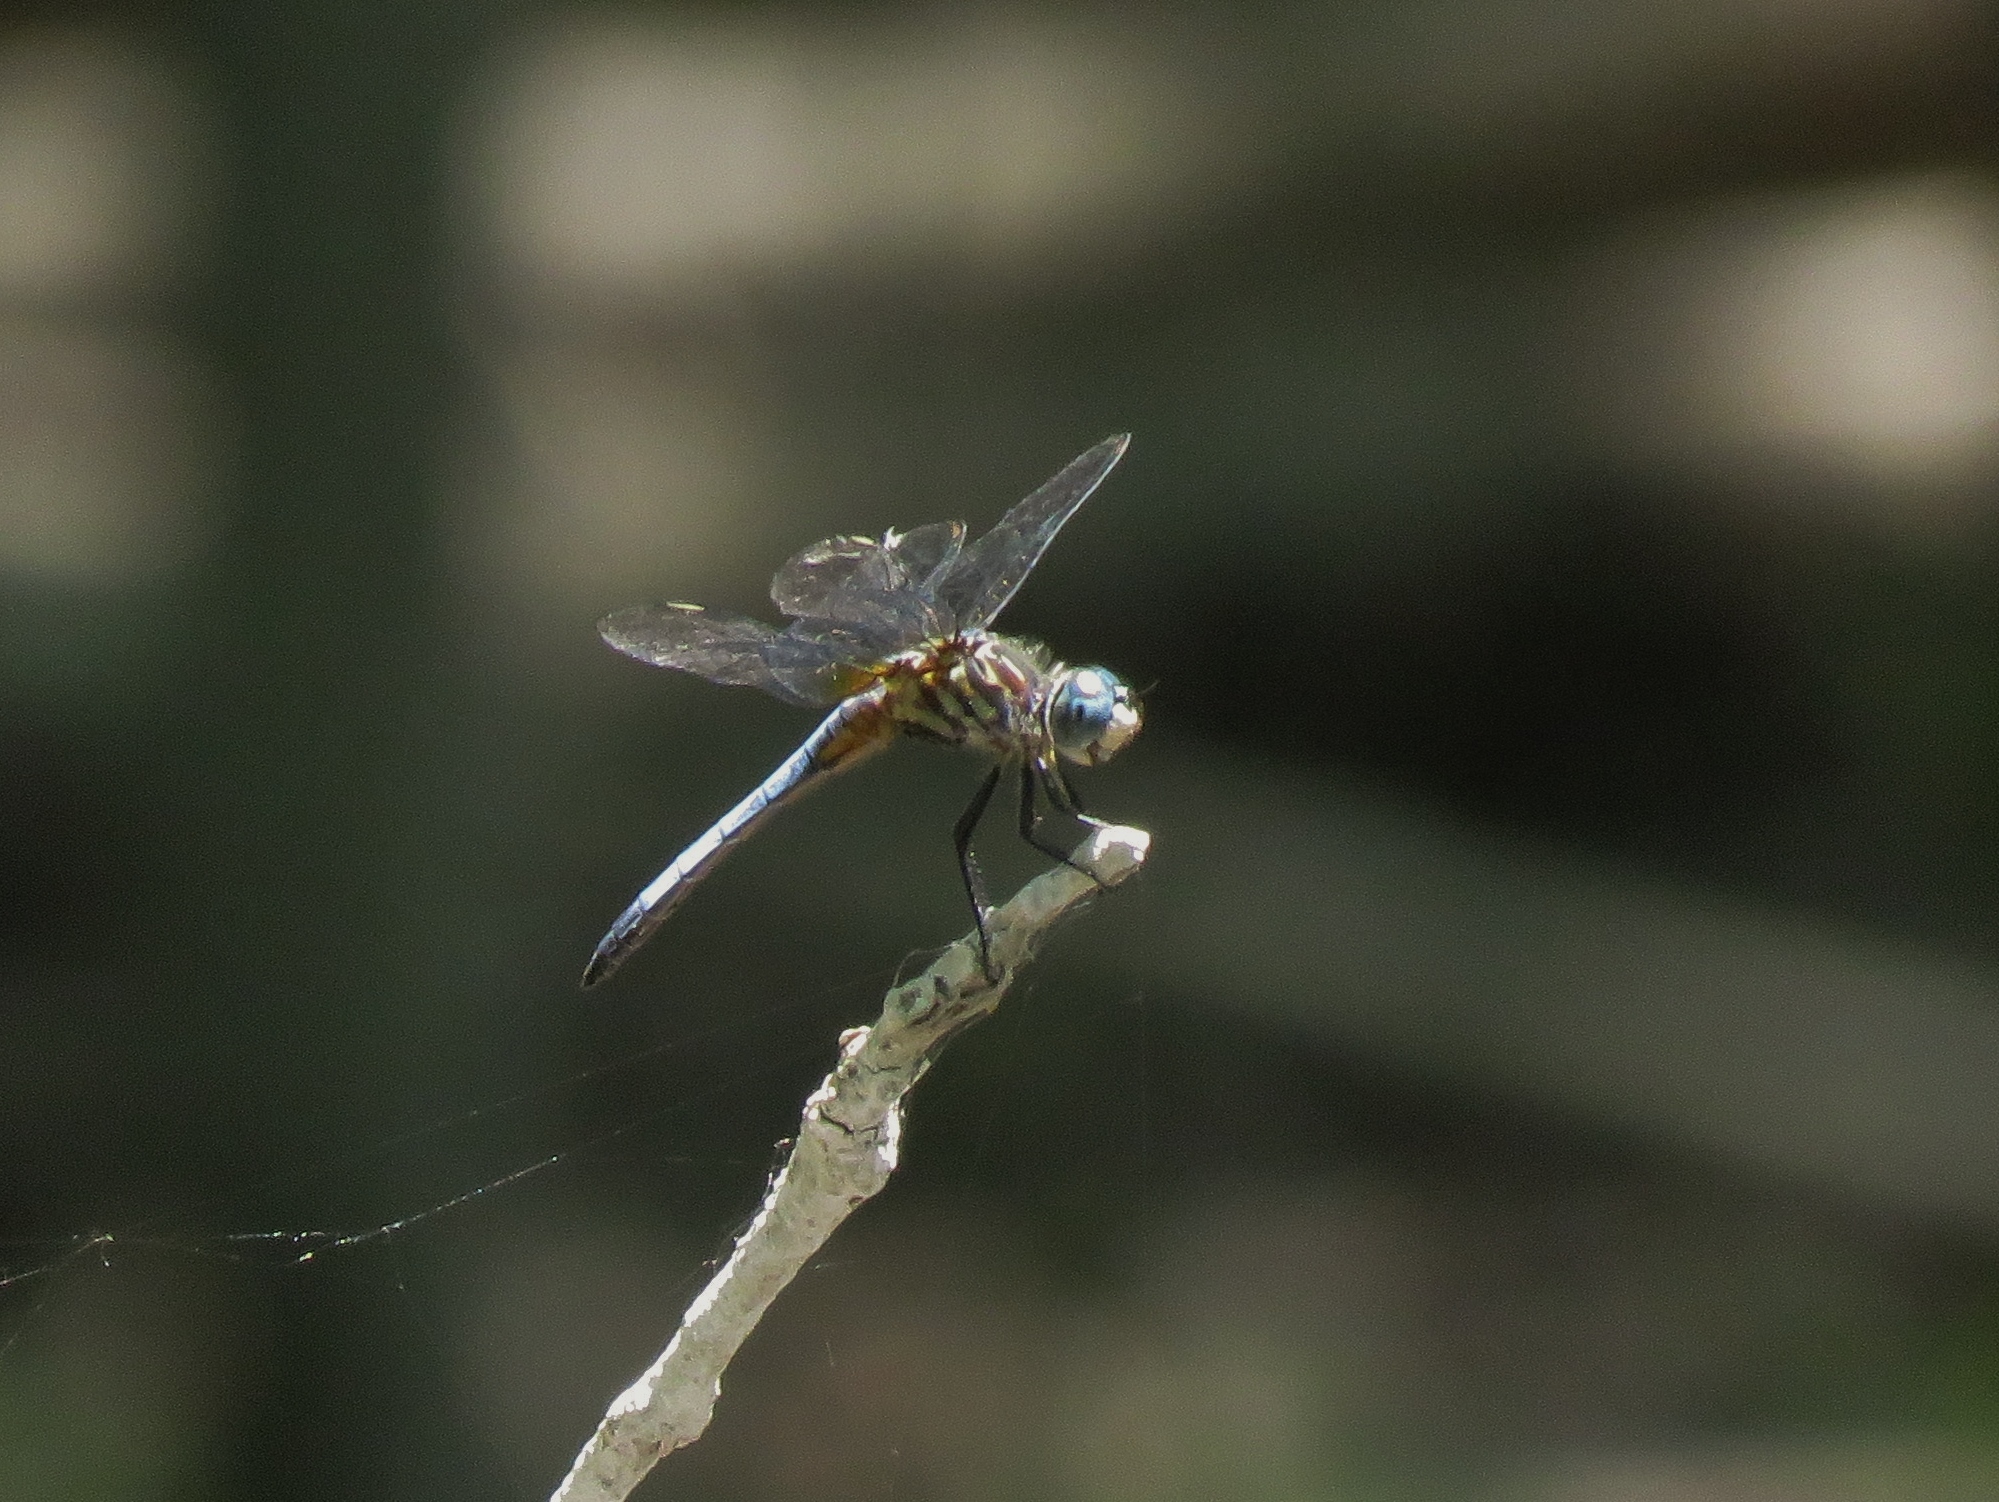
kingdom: Animalia
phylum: Arthropoda
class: Insecta
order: Odonata
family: Libellulidae
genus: Pachydiplax
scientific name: Pachydiplax longipennis
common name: Blue dasher
